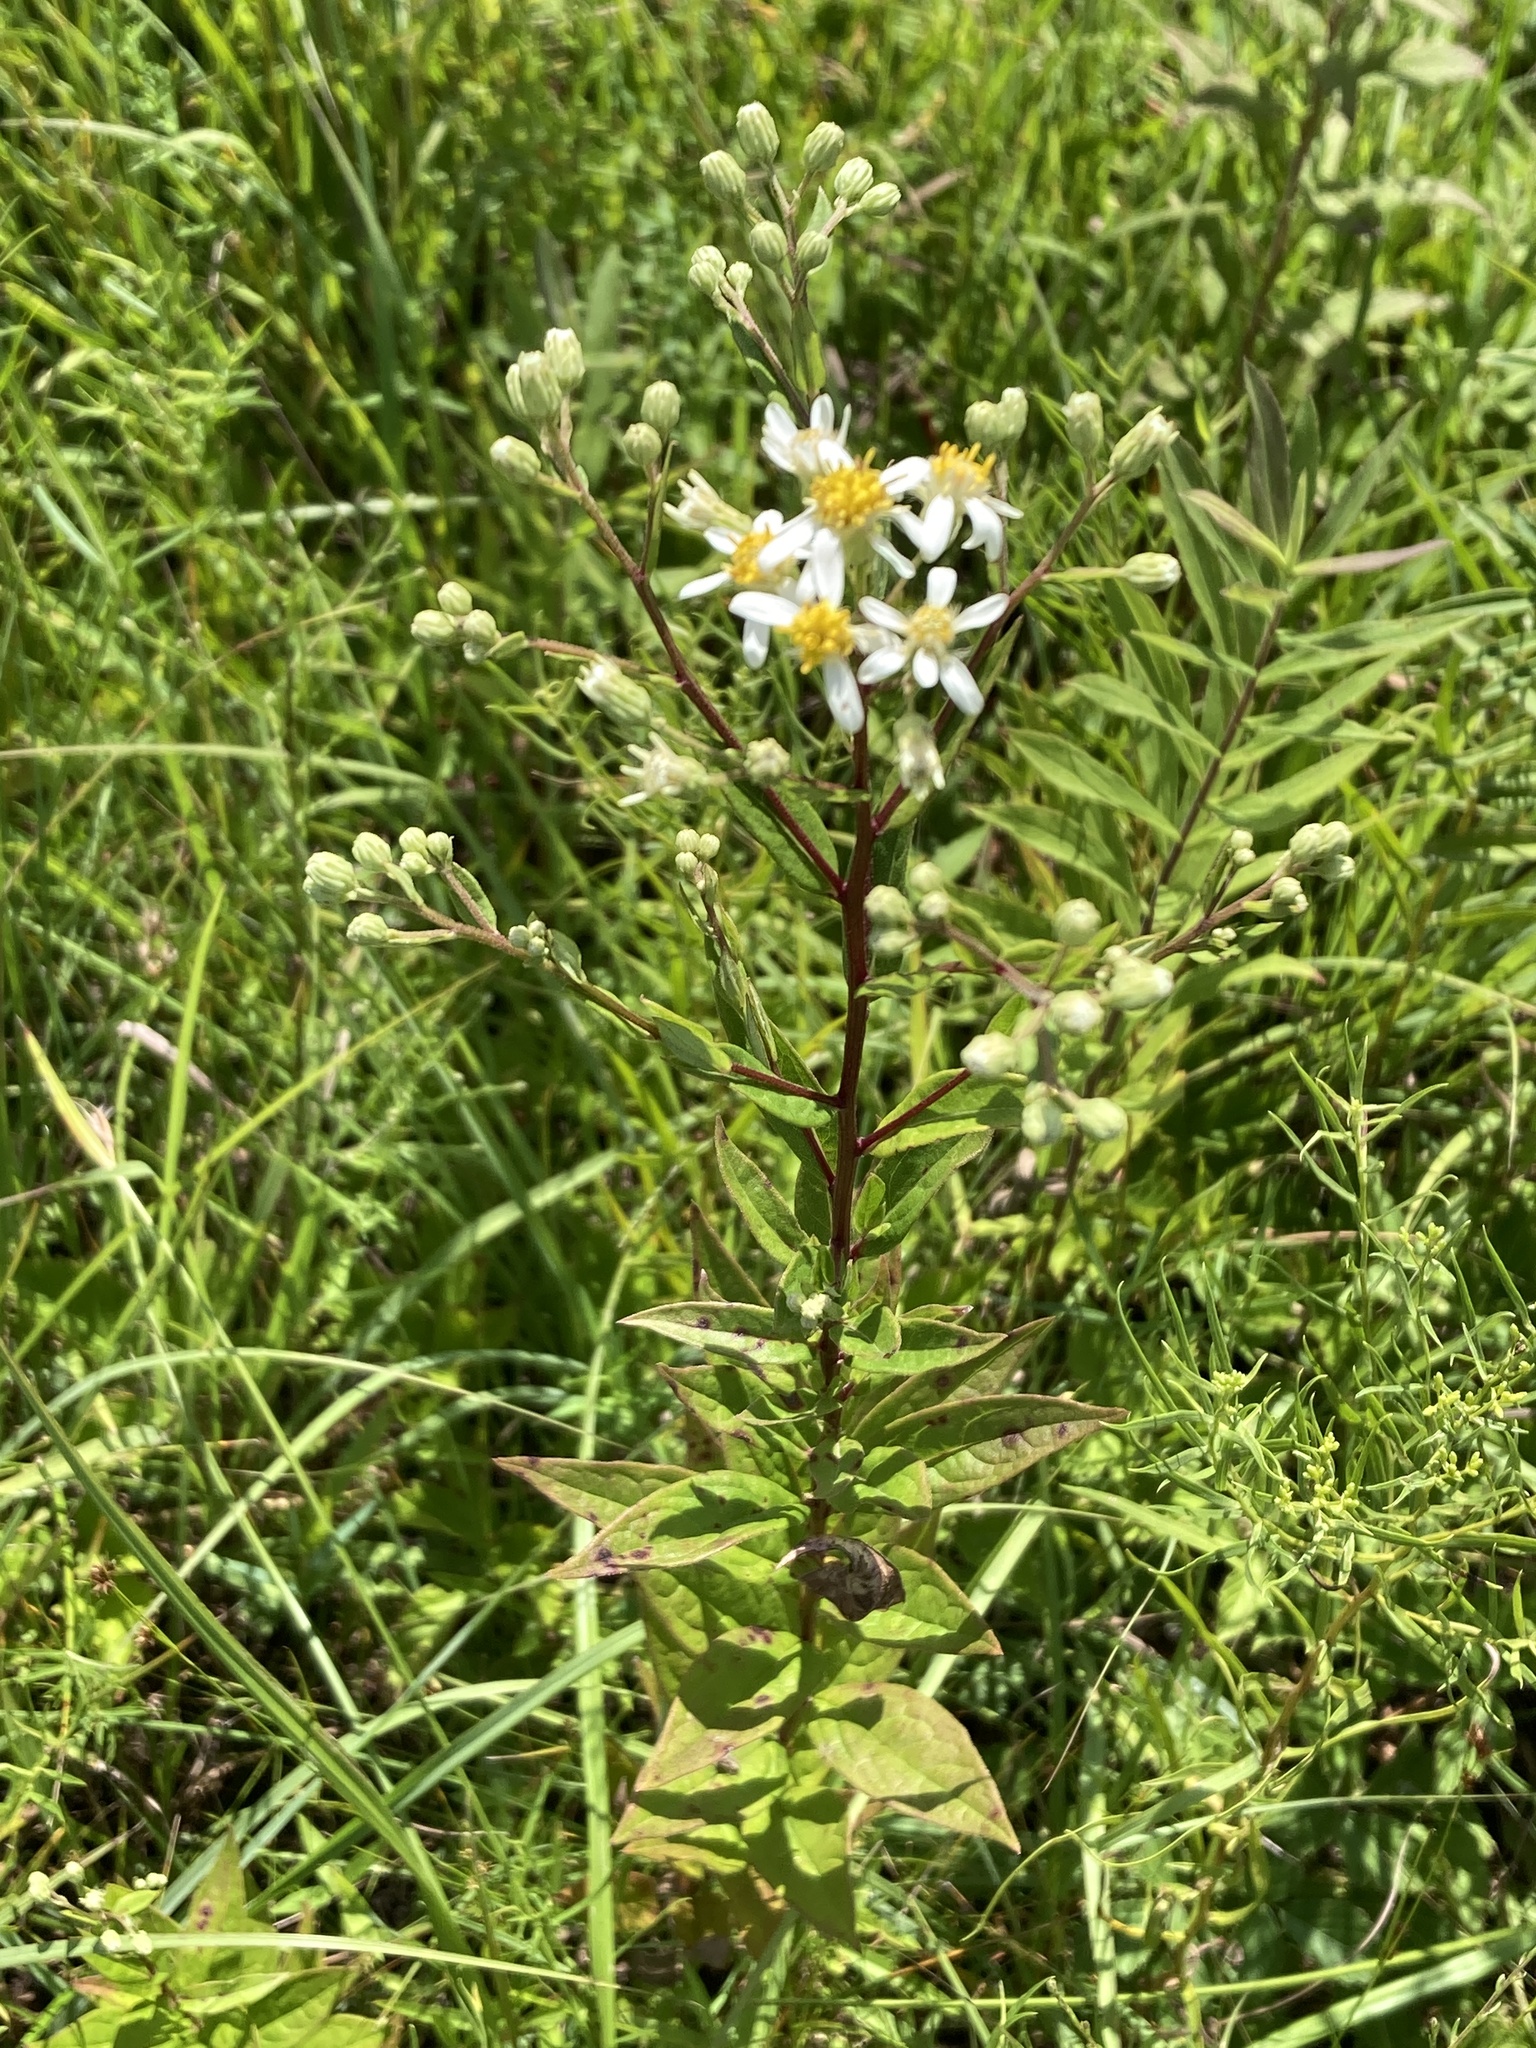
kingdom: Plantae
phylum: Tracheophyta
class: Magnoliopsida
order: Asterales
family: Asteraceae
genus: Doellingeria
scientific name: Doellingeria umbellata
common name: Flat-top white aster
